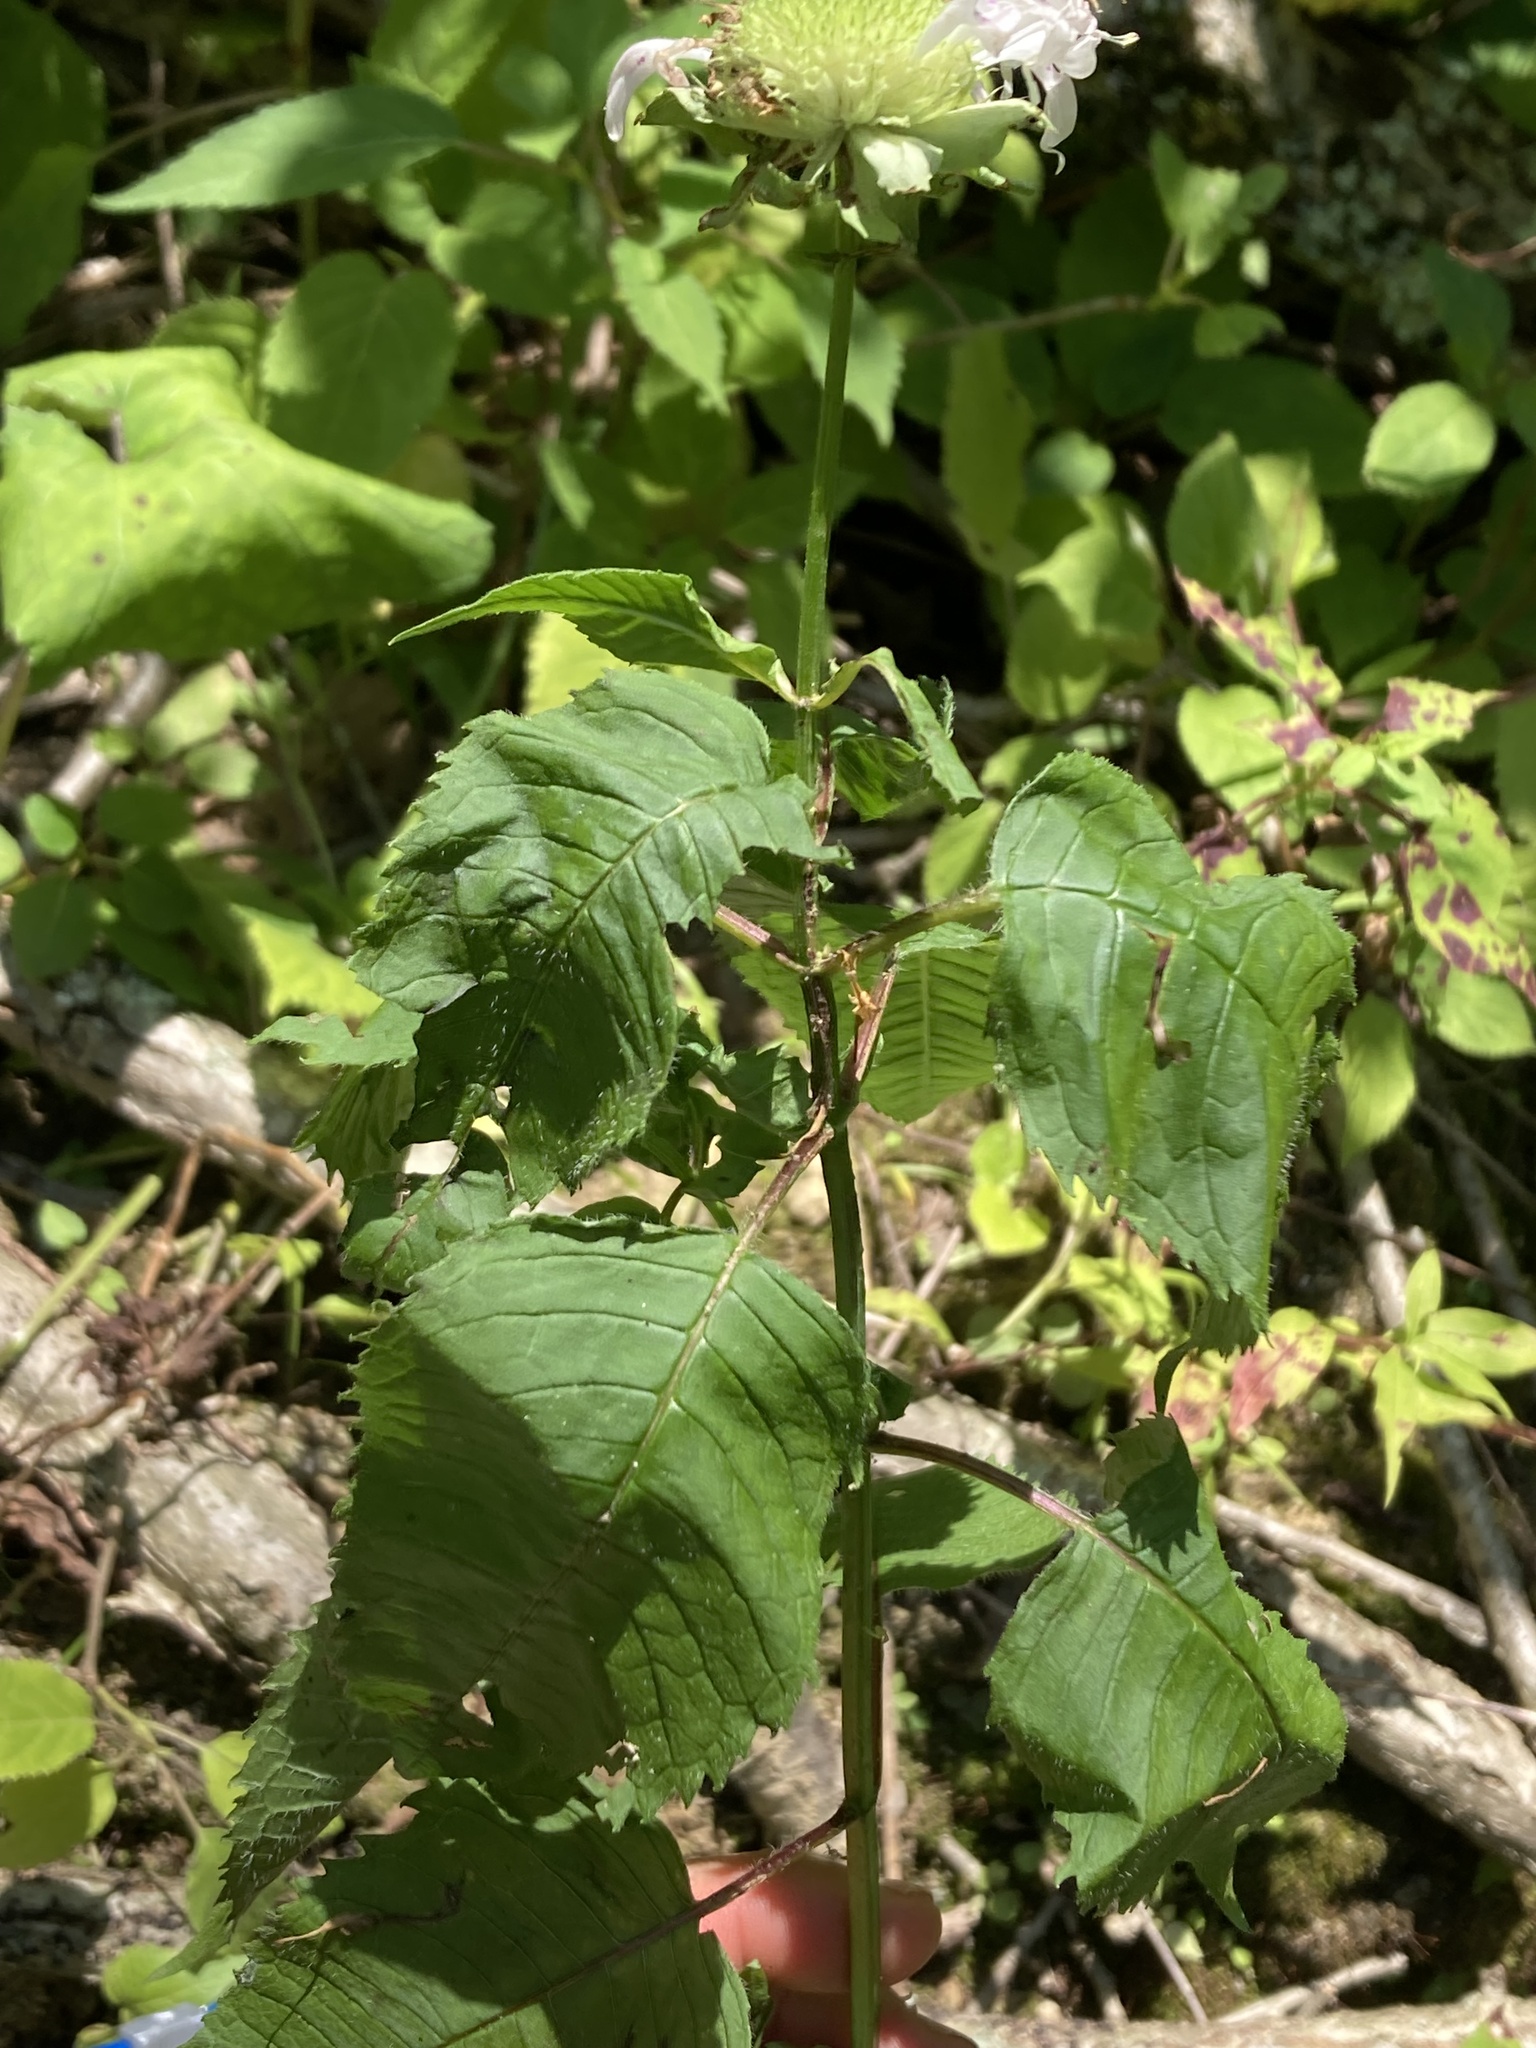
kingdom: Plantae
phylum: Tracheophyta
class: Magnoliopsida
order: Lamiales
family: Lamiaceae
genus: Monarda
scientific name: Monarda
